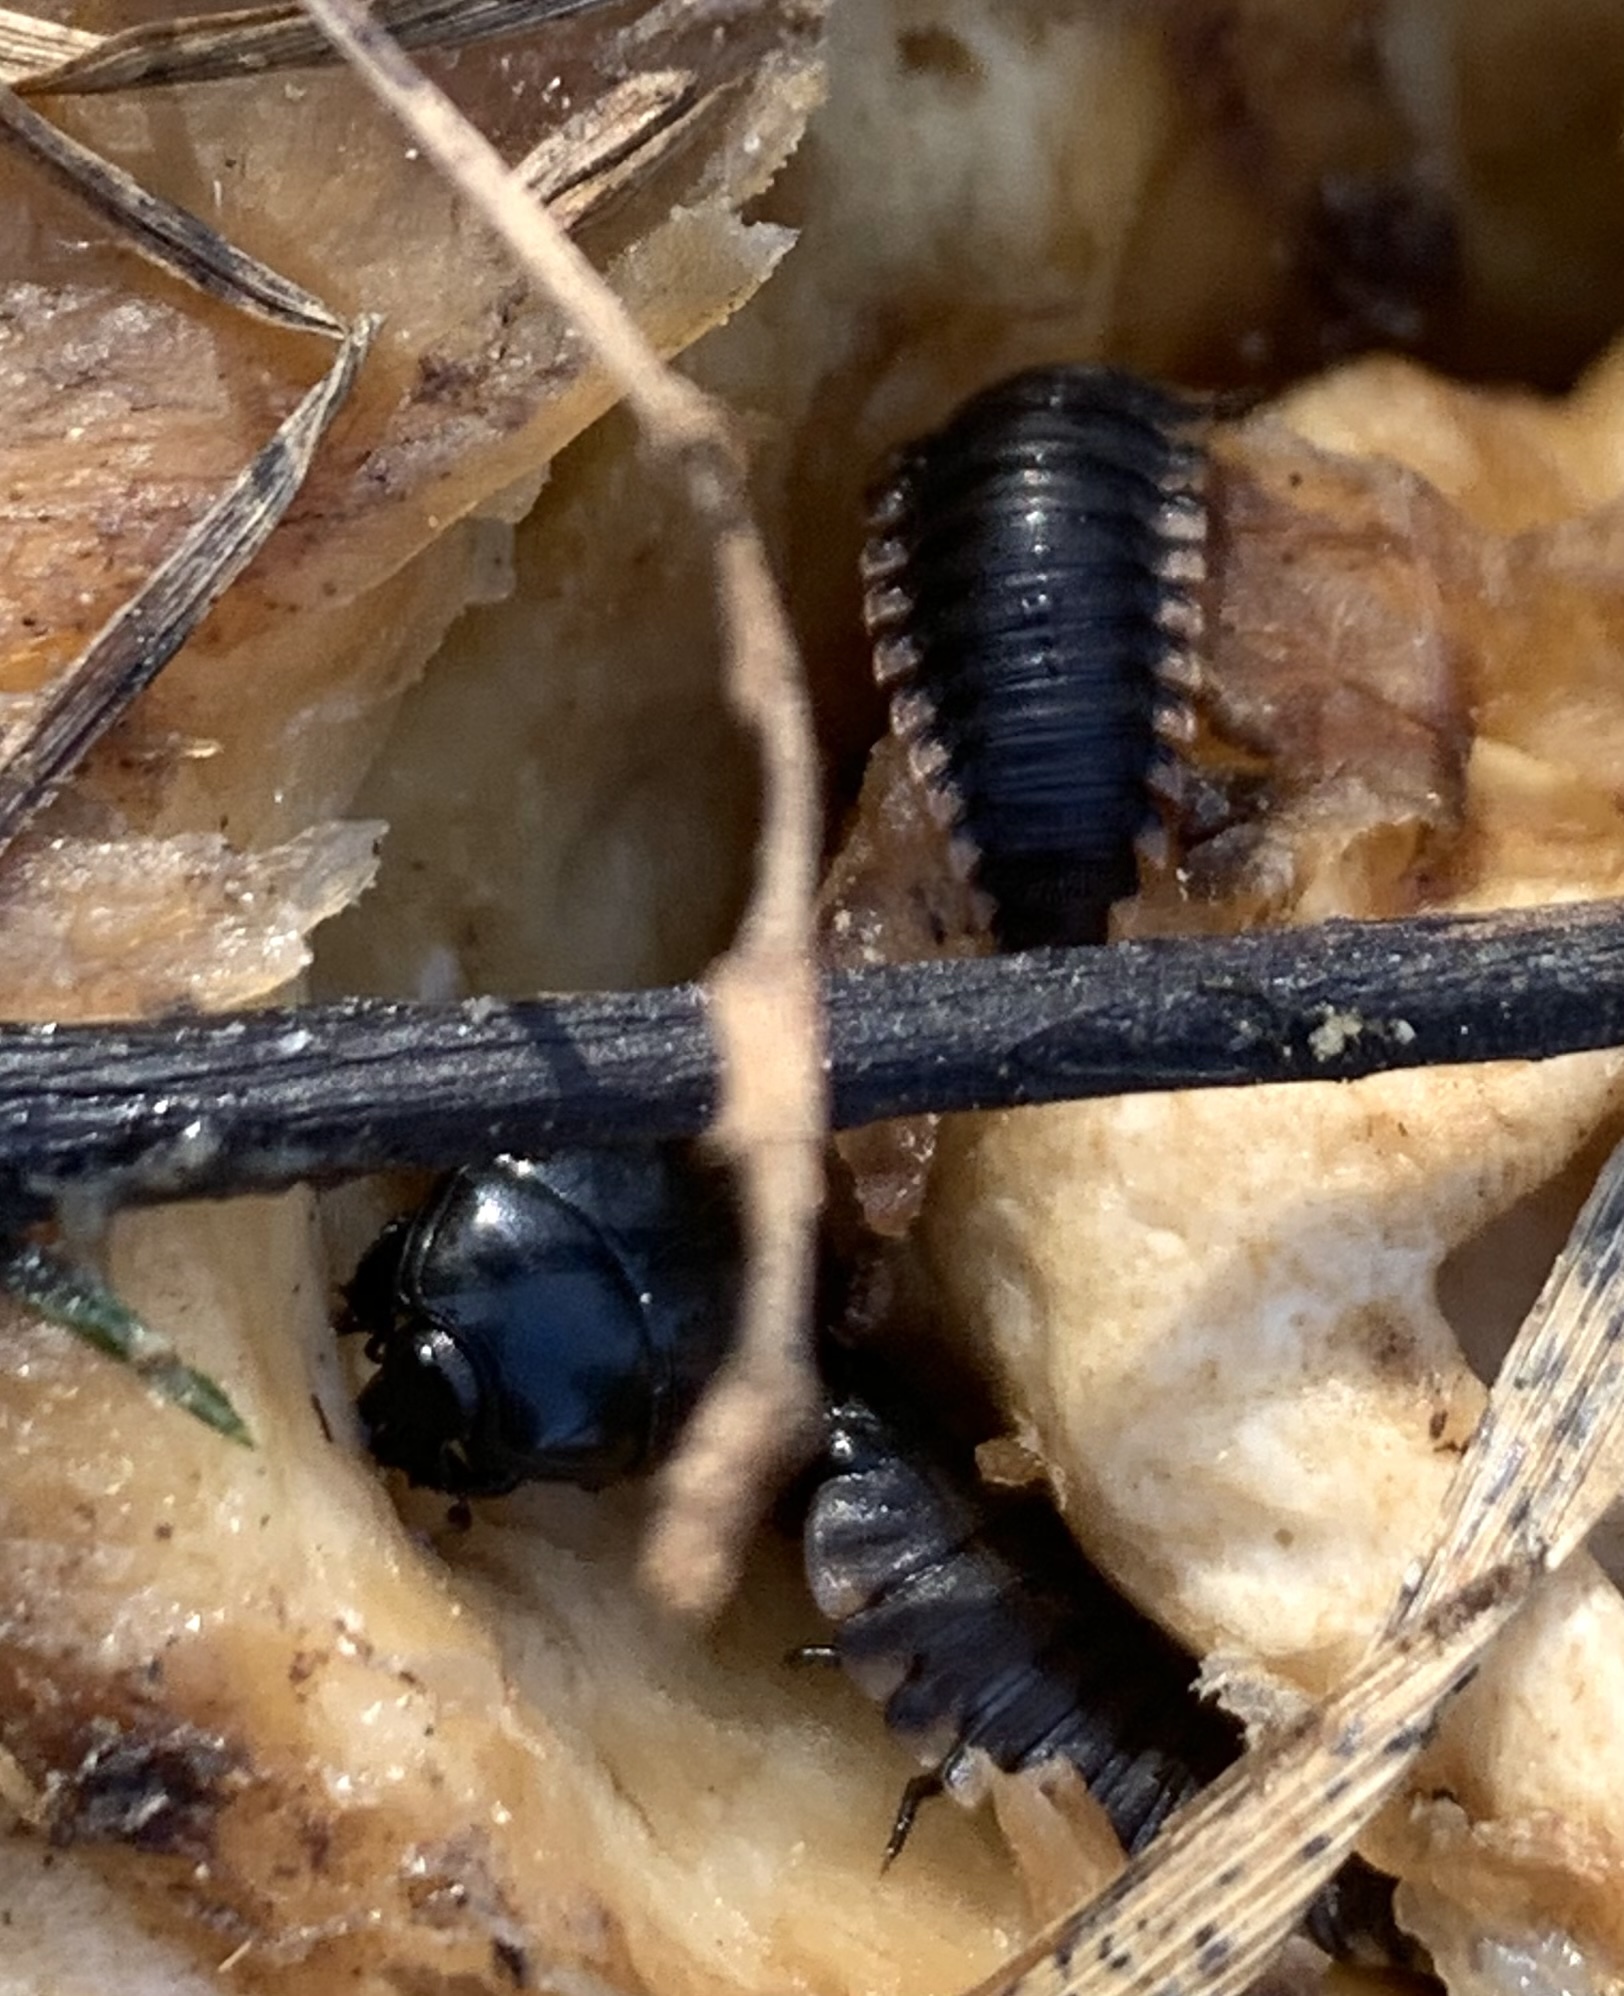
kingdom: Animalia
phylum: Arthropoda
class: Insecta
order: Coleoptera
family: Staphylinidae
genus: Oiceoptoma
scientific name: Oiceoptoma inaequale
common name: Ridged carrion beetle
